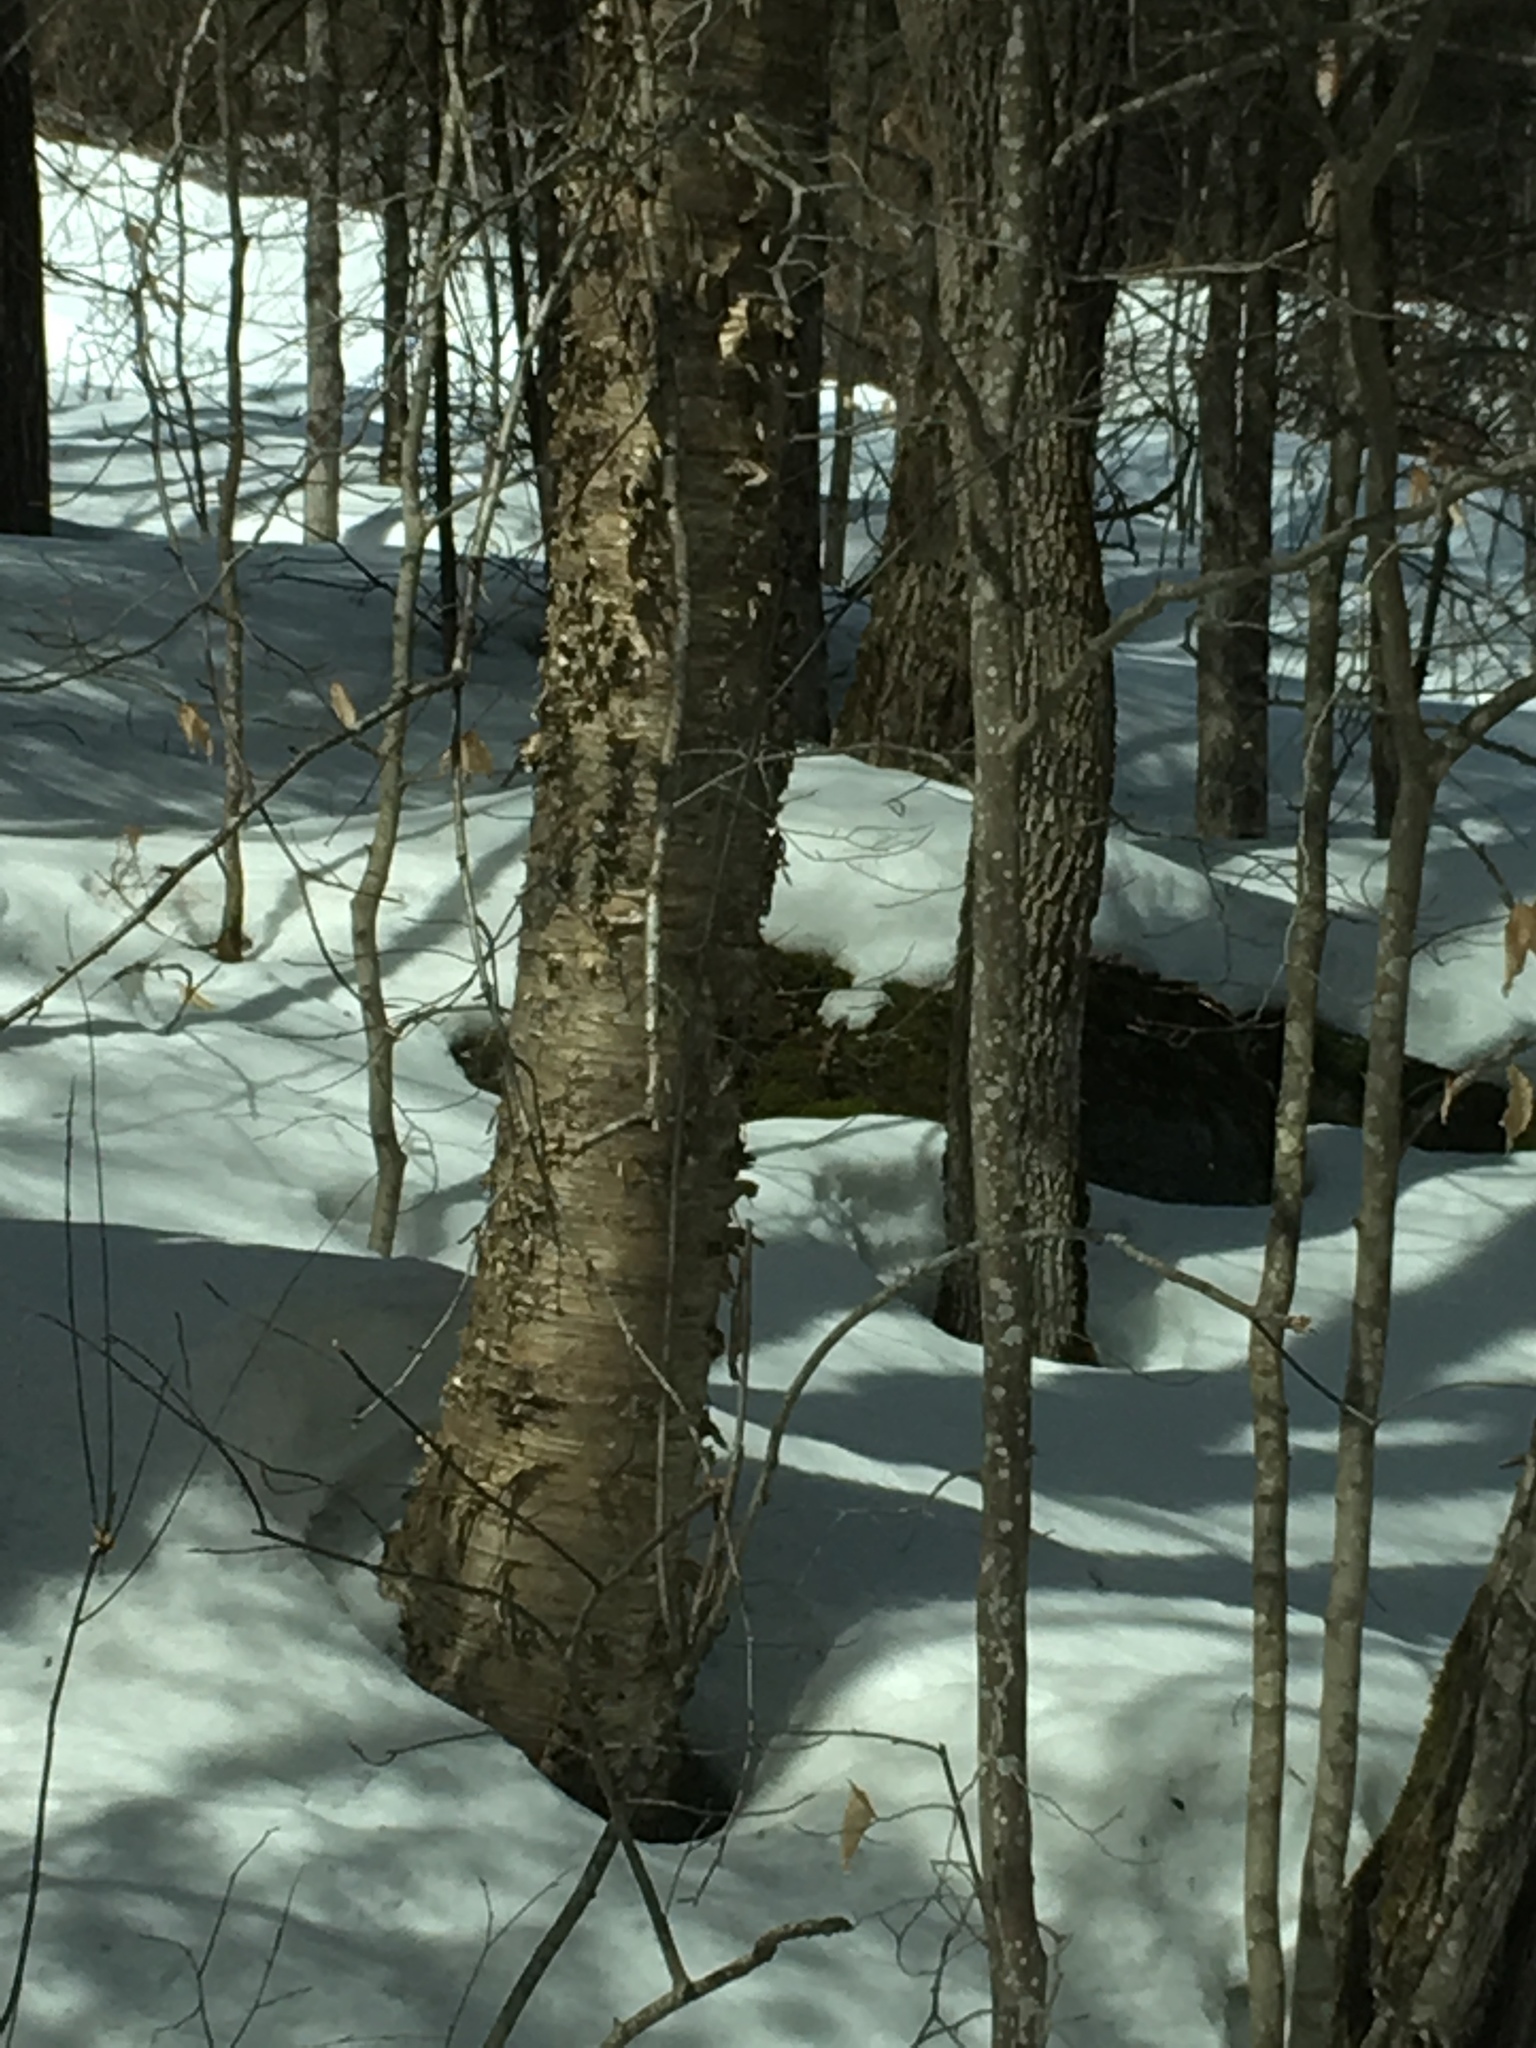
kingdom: Plantae
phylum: Tracheophyta
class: Magnoliopsida
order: Fagales
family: Betulaceae
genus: Betula
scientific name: Betula alleghaniensis
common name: Yellow birch
